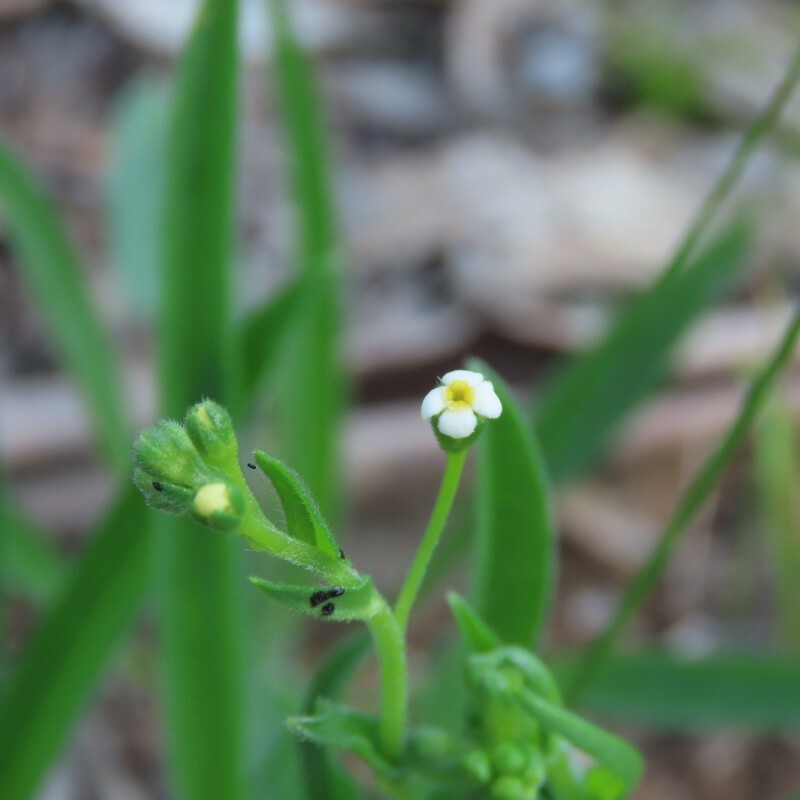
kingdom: Plantae
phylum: Tracheophyta
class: Magnoliopsida
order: Boraginales
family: Boraginaceae
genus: Hackelia
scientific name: Hackelia suaveolens
